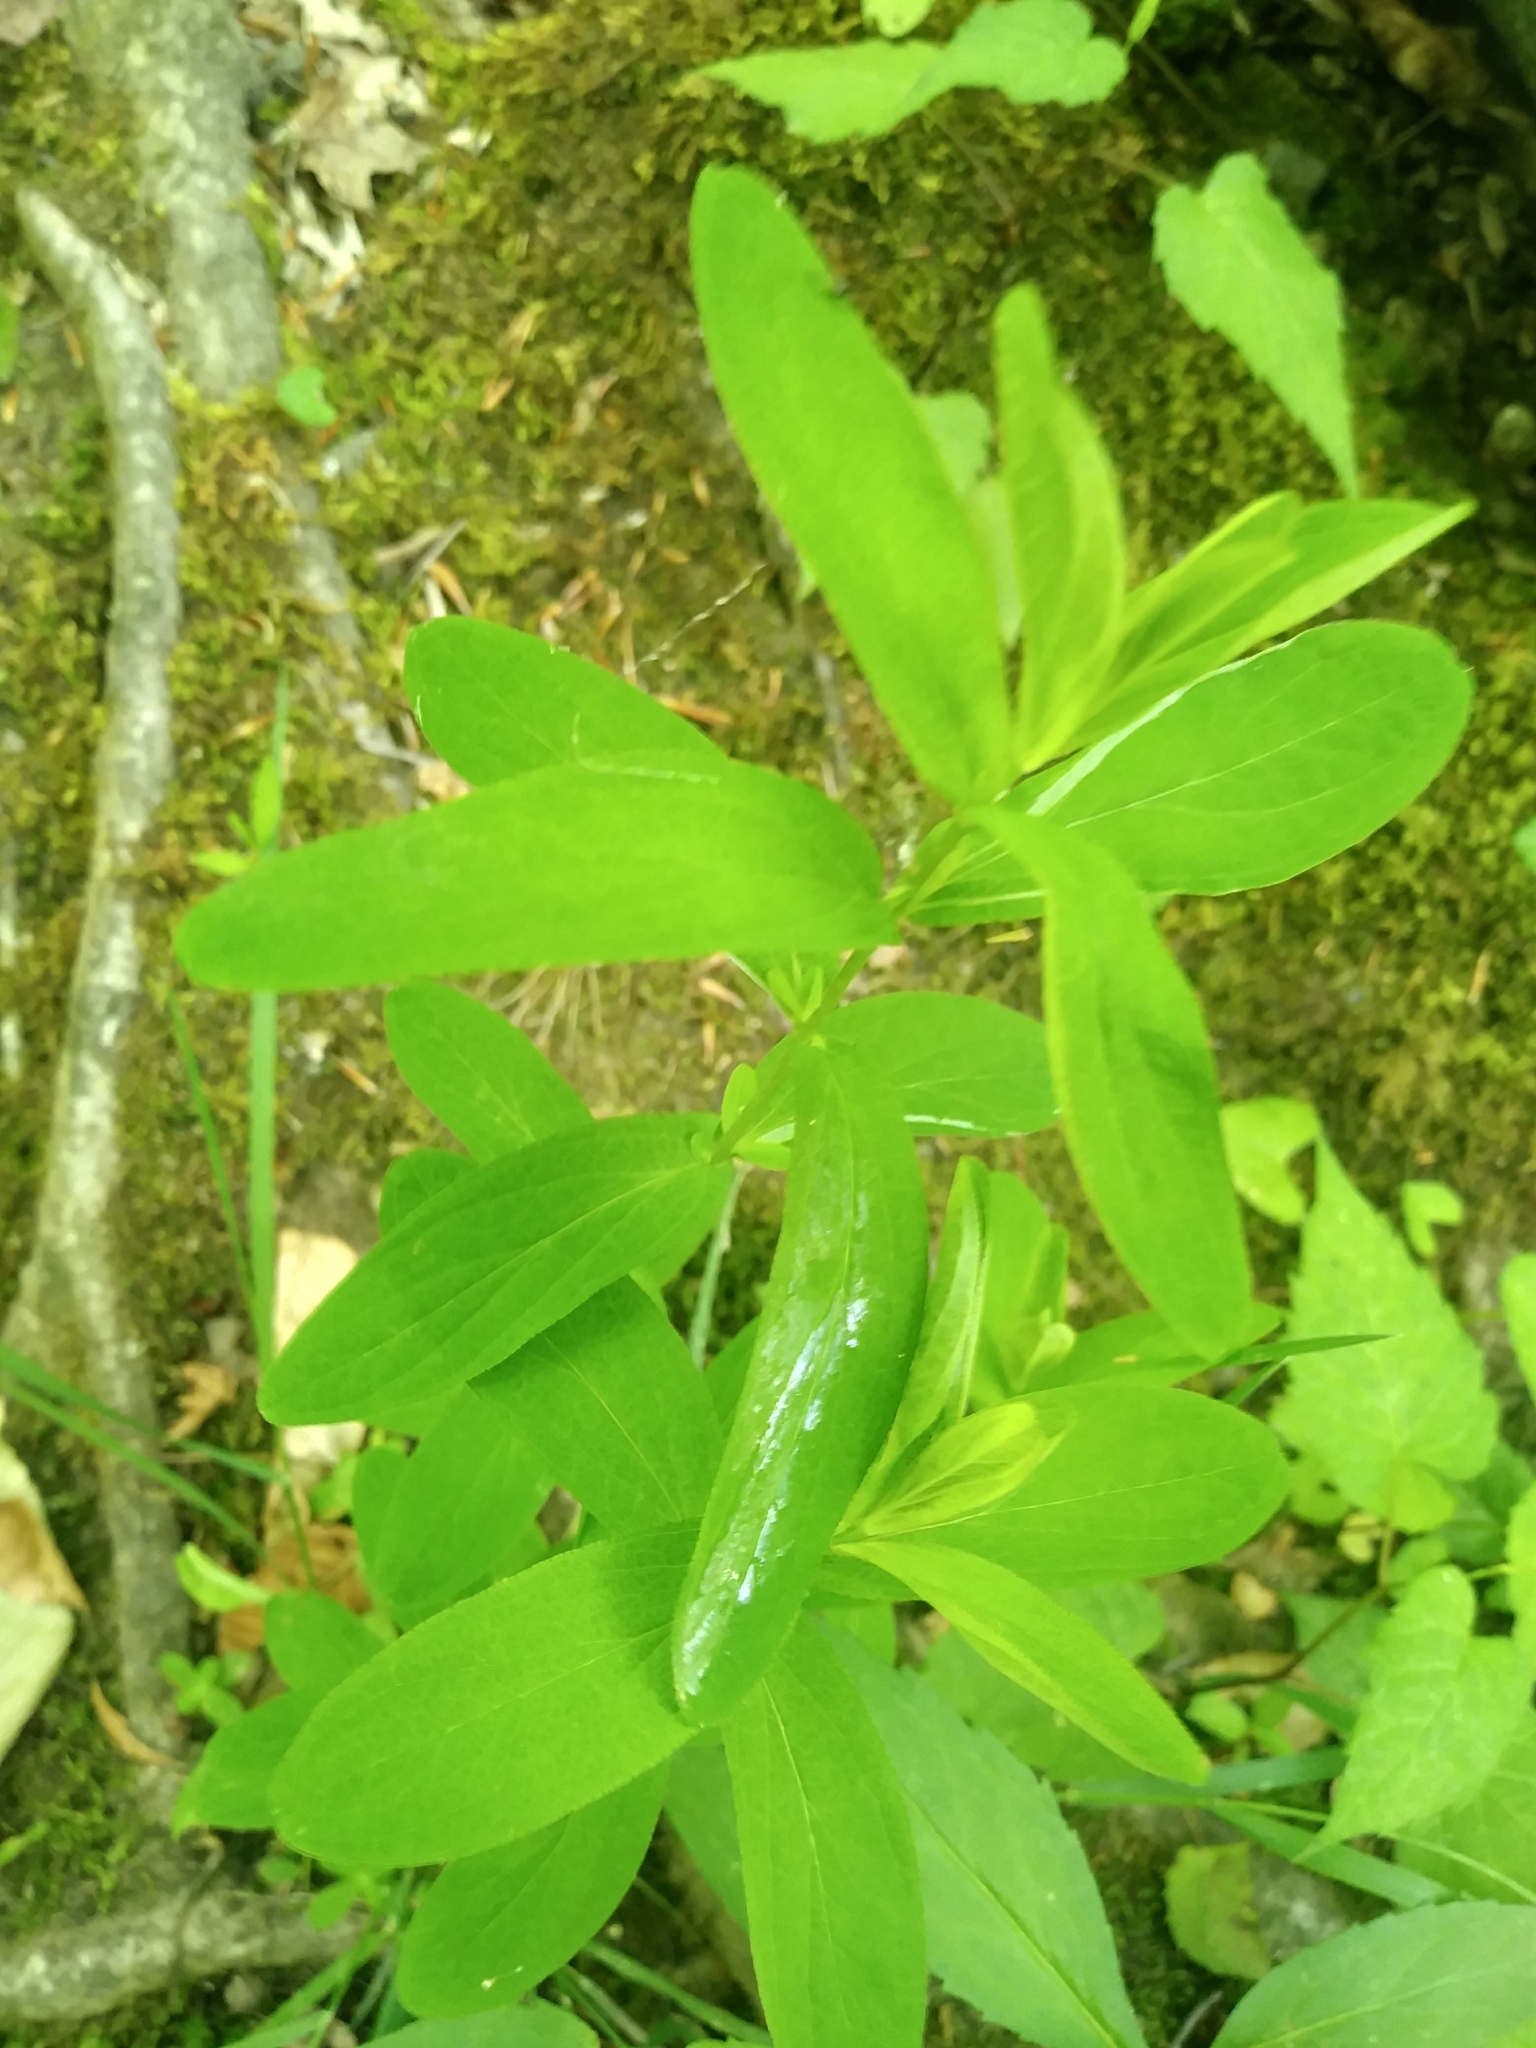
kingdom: Plantae
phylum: Tracheophyta
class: Magnoliopsida
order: Malpighiales
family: Hypericaceae
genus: Hypericum
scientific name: Hypericum punctatum
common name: Spotted st. john's-wort
